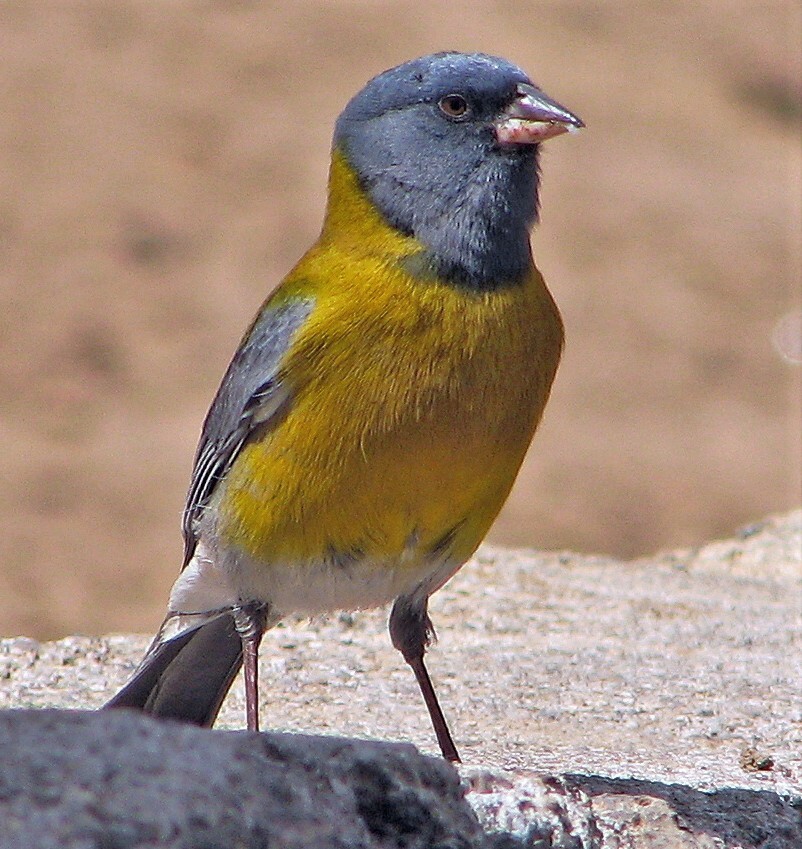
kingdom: Animalia
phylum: Chordata
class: Aves
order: Passeriformes
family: Thraupidae
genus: Phrygilus
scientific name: Phrygilus gayi
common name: Grey-hooded sierra finch
